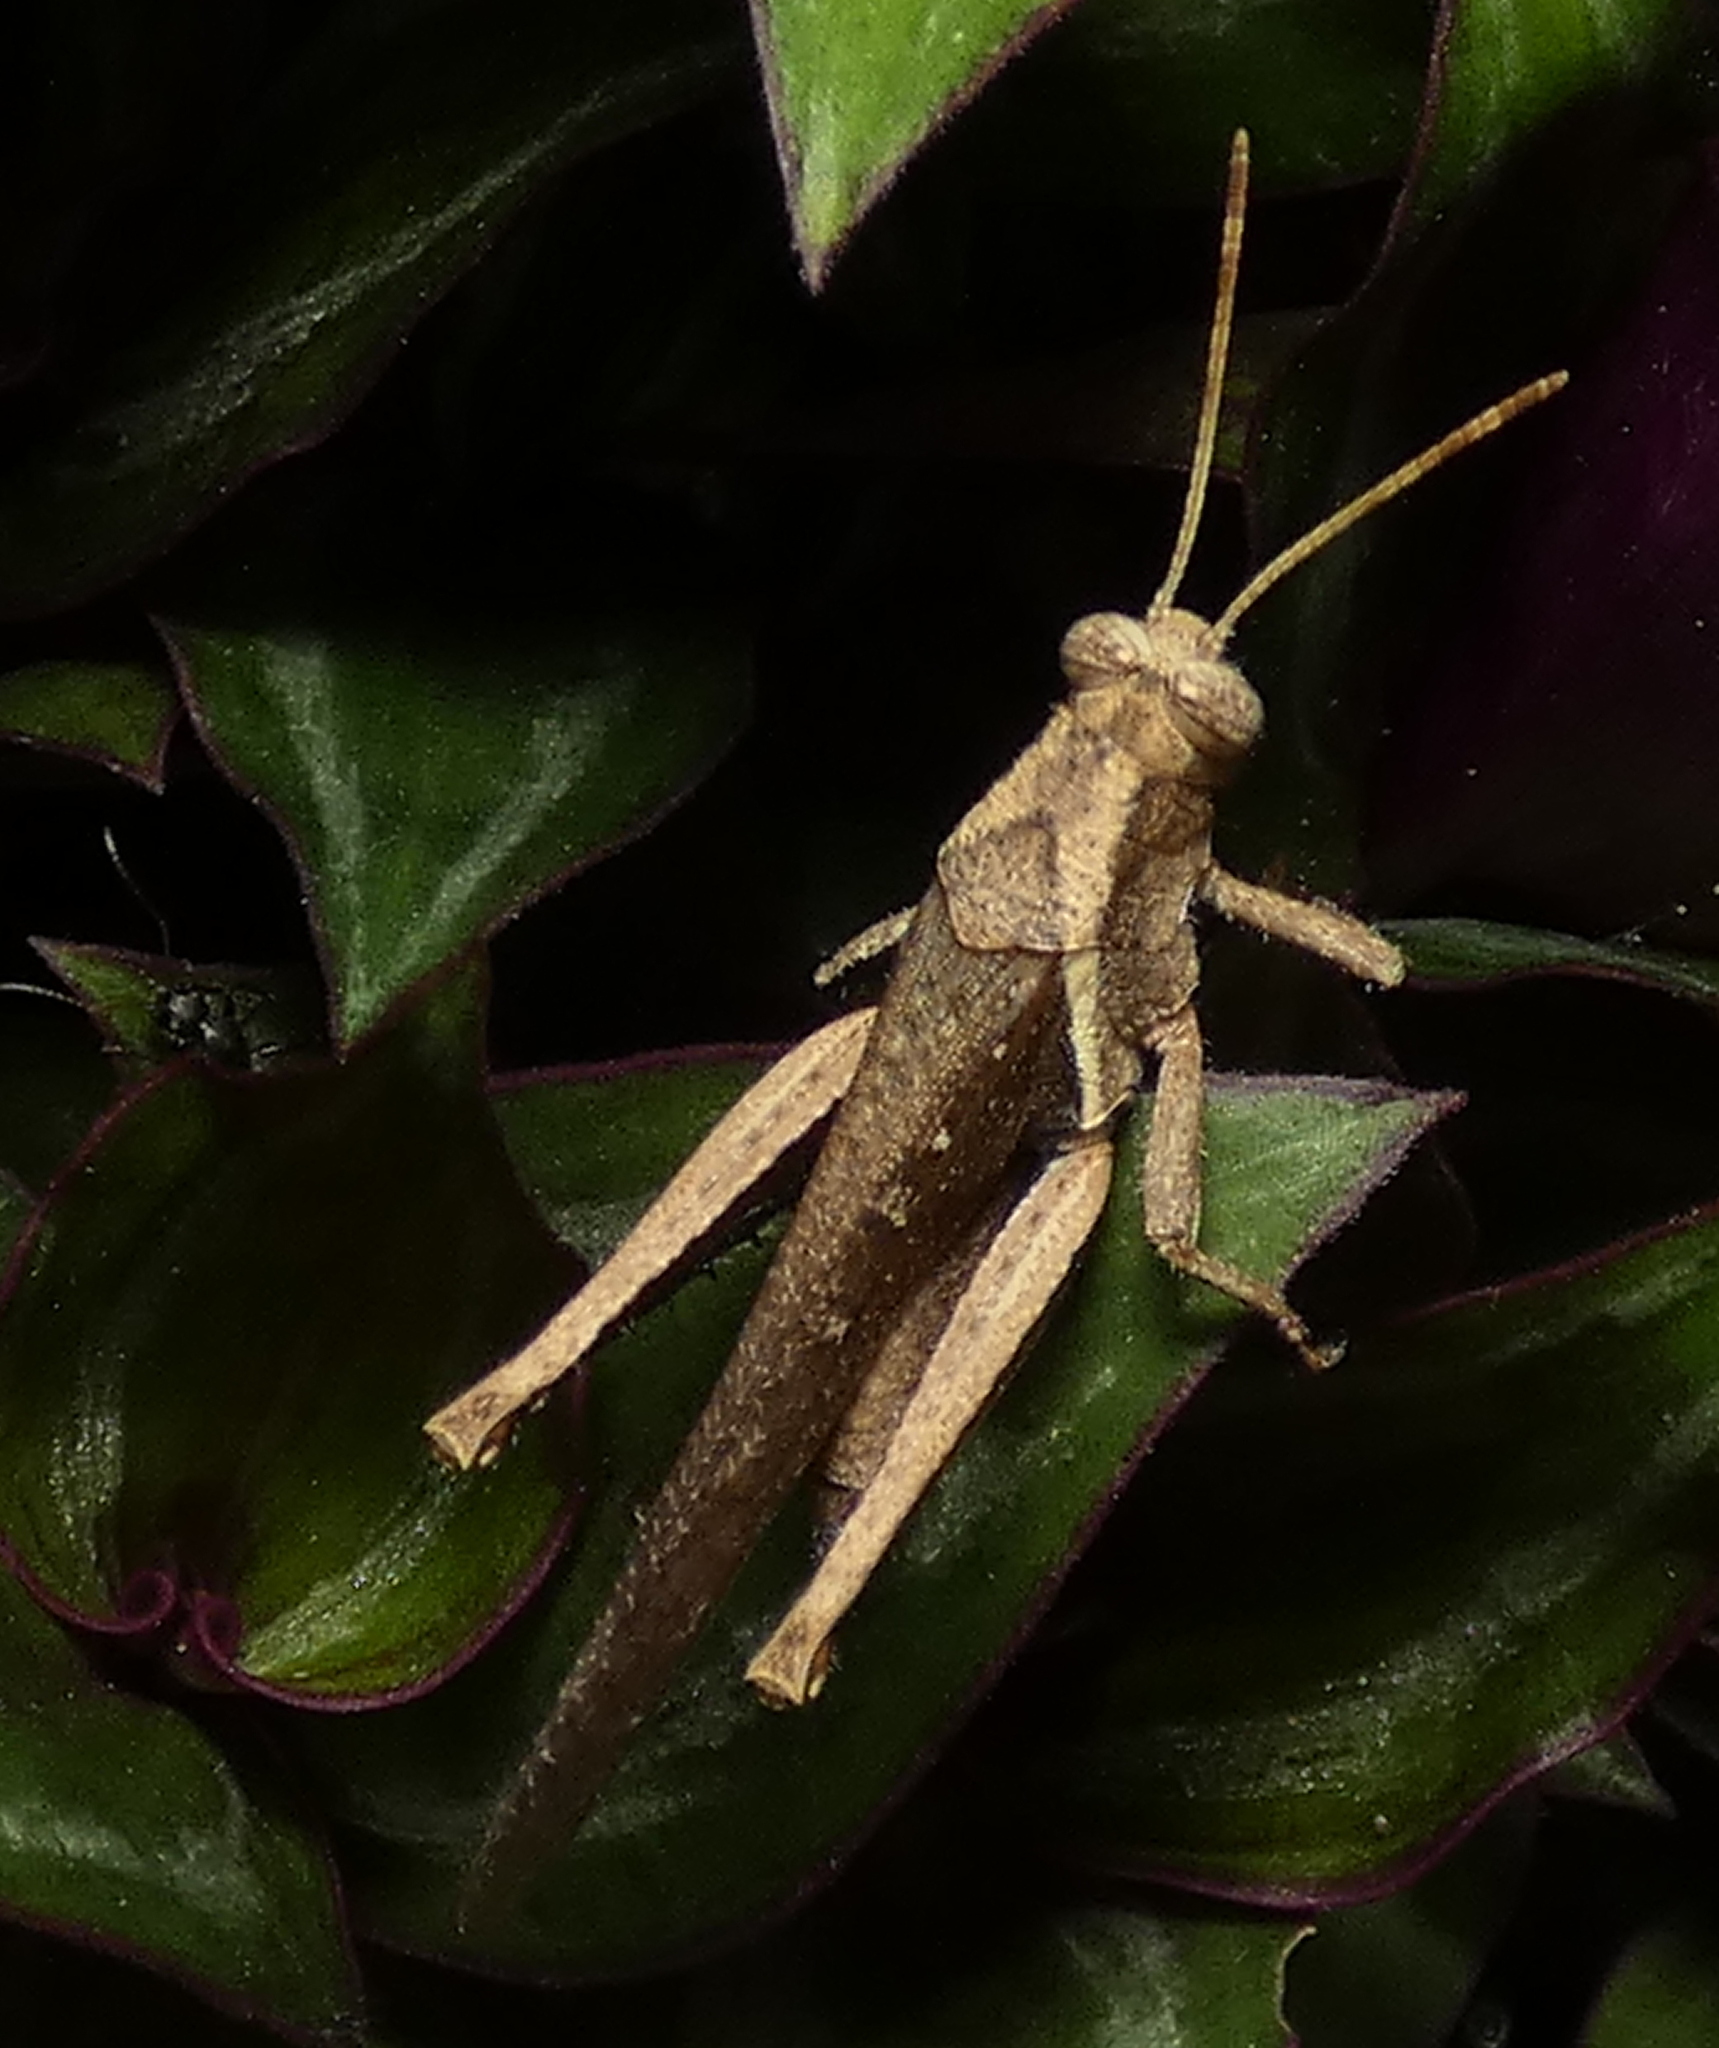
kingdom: Animalia
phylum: Arthropoda
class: Insecta
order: Orthoptera
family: Acrididae
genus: Abracris
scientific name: Abracris flavolineata
